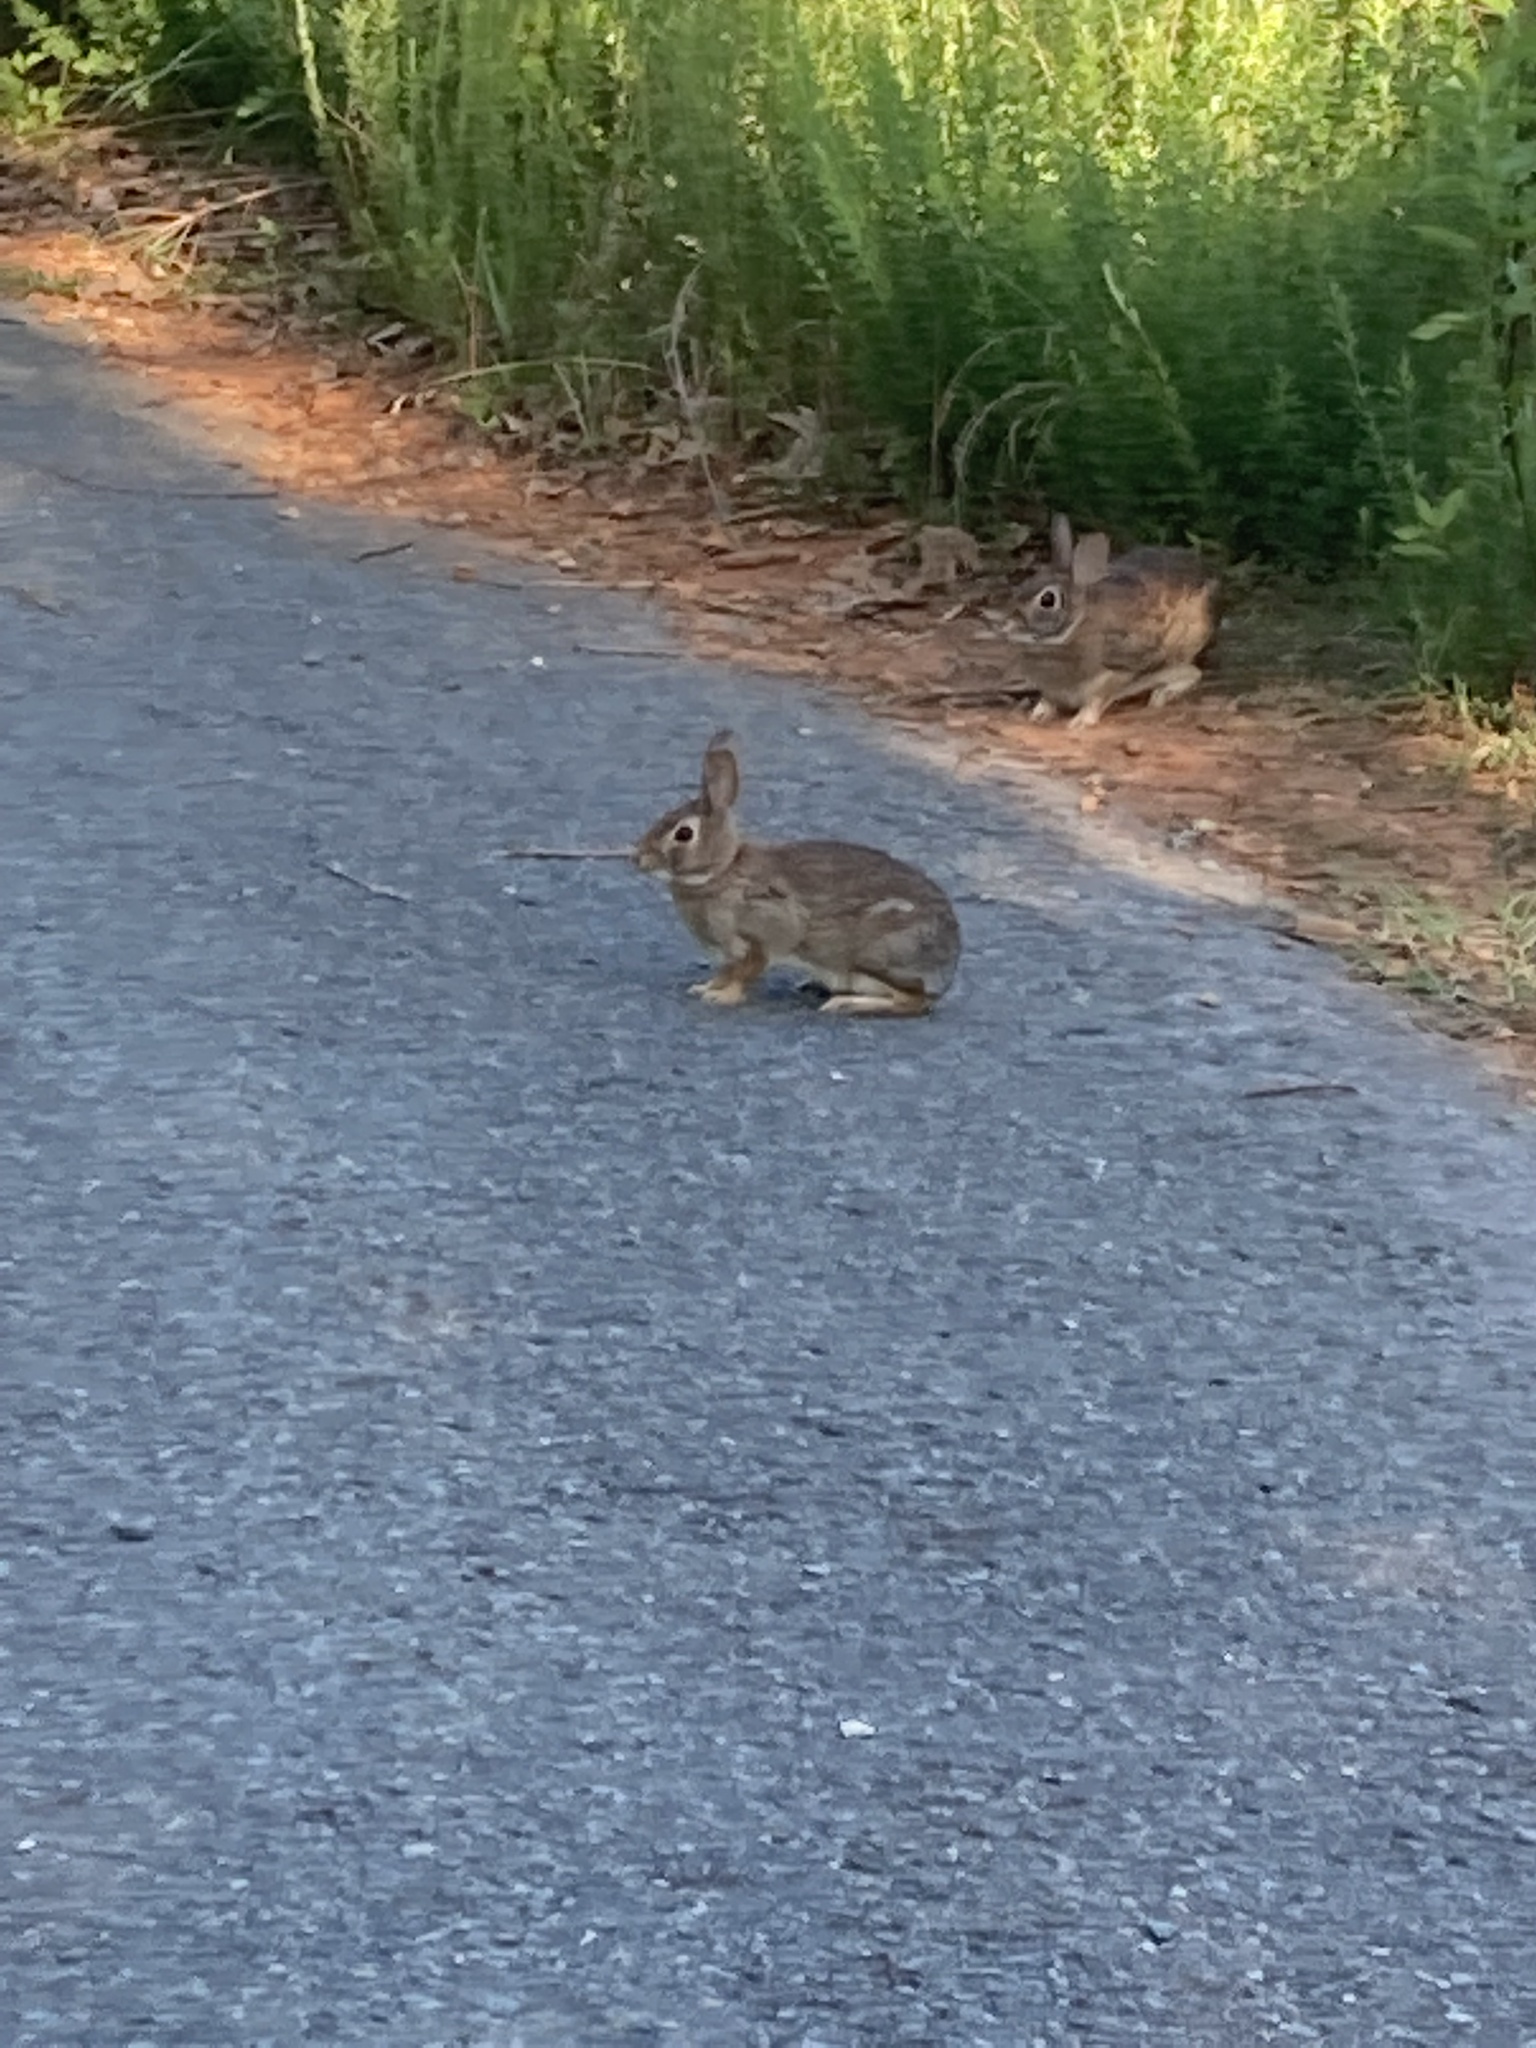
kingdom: Animalia
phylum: Chordata
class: Mammalia
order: Lagomorpha
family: Leporidae
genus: Sylvilagus
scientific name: Sylvilagus floridanus
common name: Eastern cottontail
